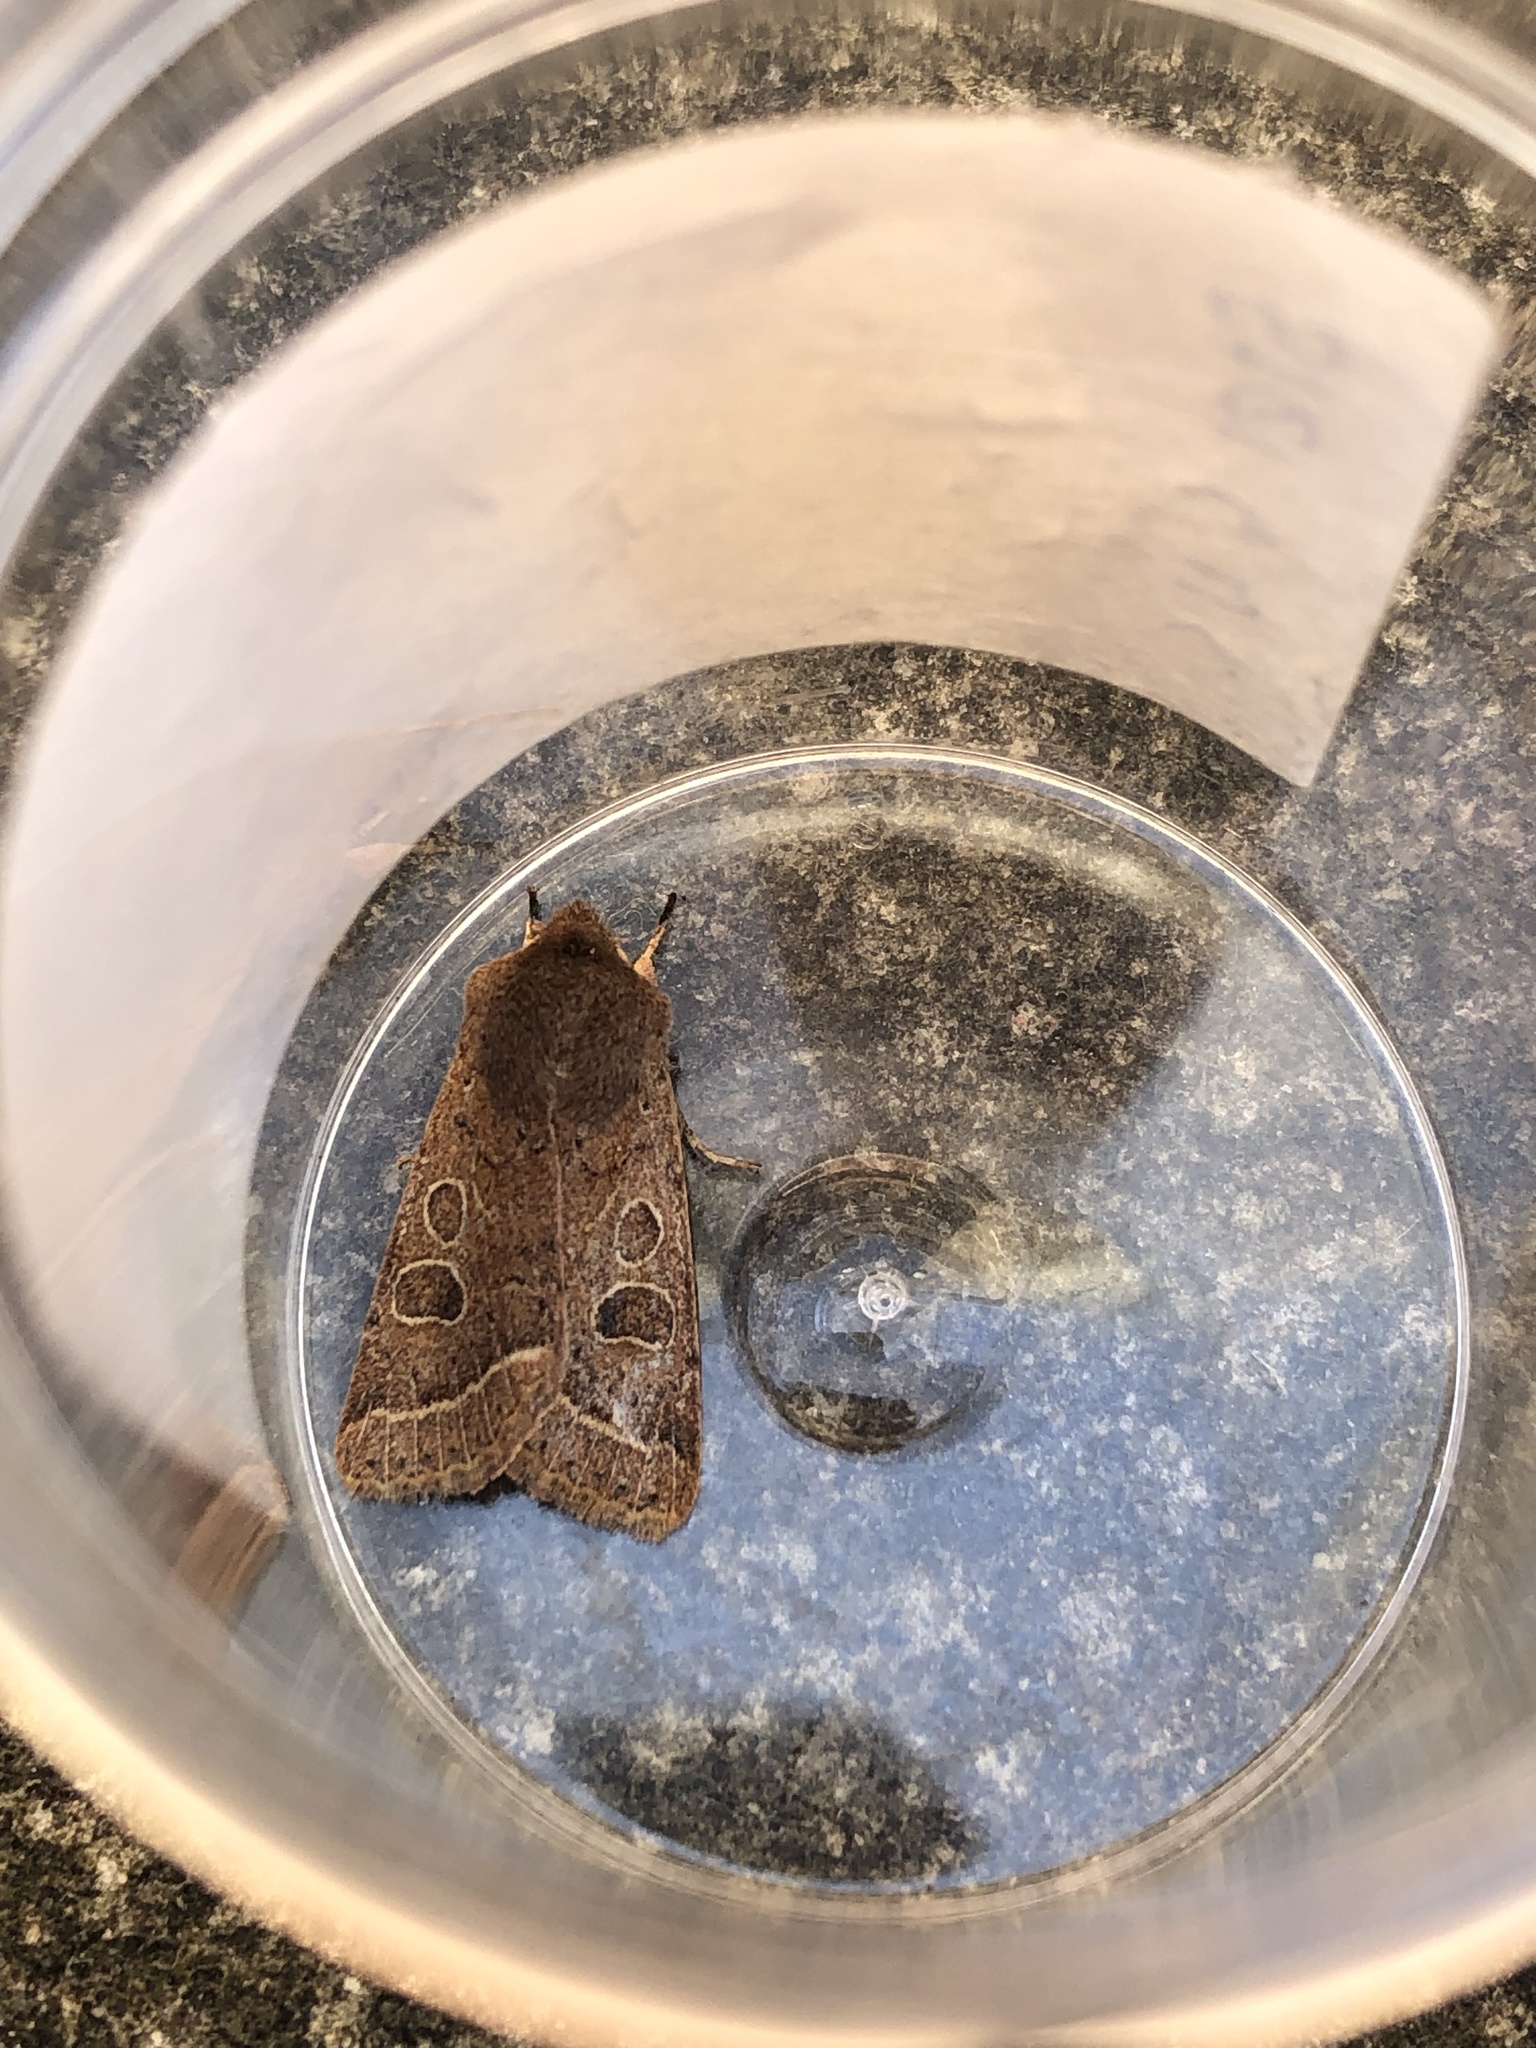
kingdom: Animalia
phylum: Arthropoda
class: Insecta
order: Lepidoptera
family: Noctuidae
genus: Orthosia
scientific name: Orthosia cerasi
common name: Common quaker
